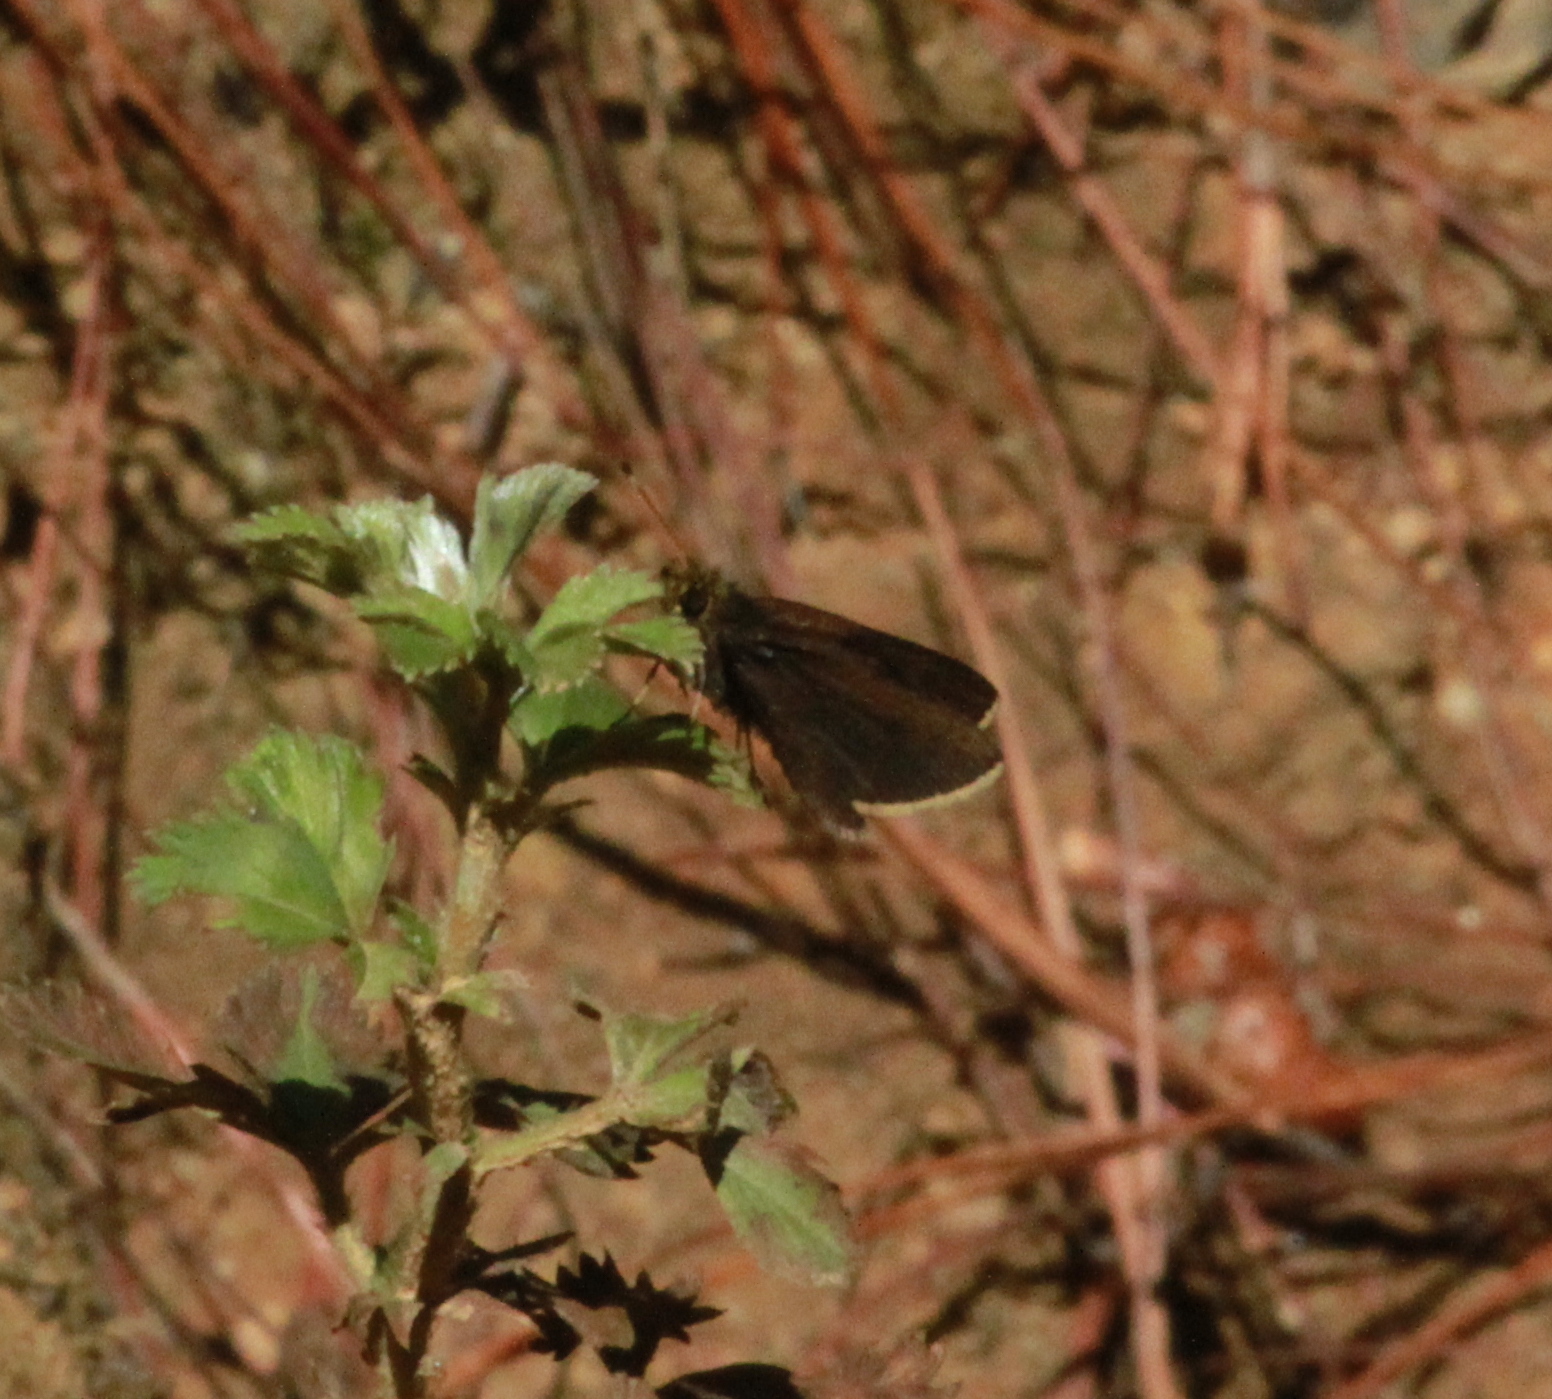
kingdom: Animalia
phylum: Arthropoda
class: Insecta
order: Lepidoptera
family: Hesperiidae
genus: Amblyscirtes
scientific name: Amblyscirtes anubis
